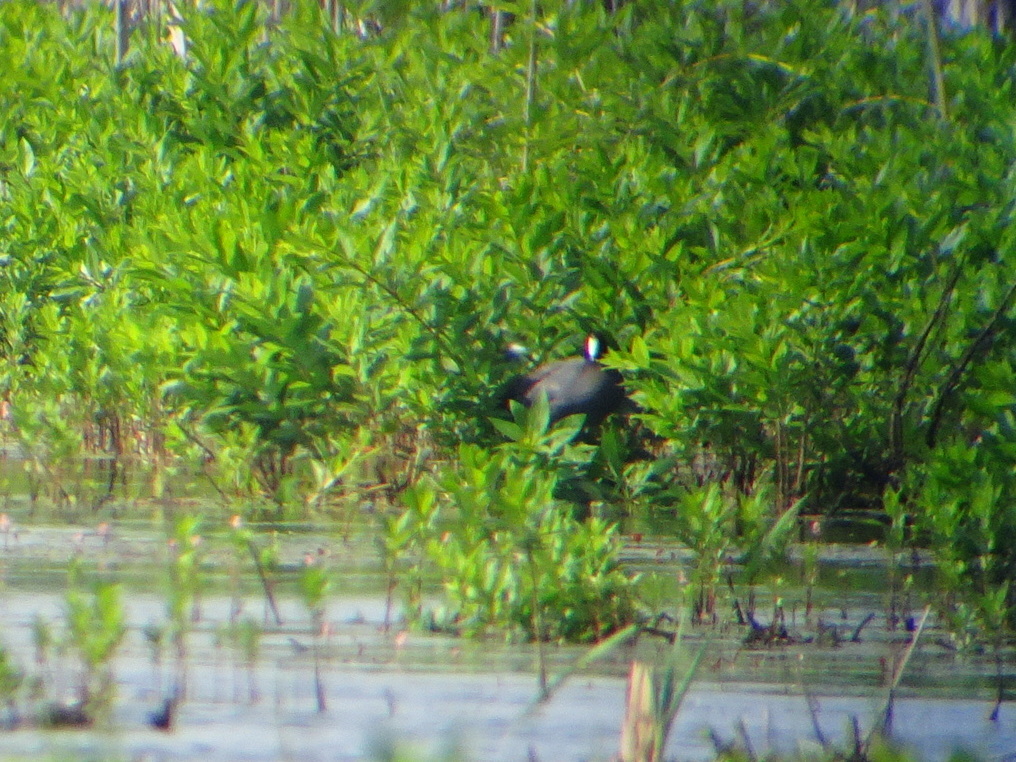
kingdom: Animalia
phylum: Chordata
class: Aves
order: Gruiformes
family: Rallidae
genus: Fulica
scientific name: Fulica americana
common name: American coot
